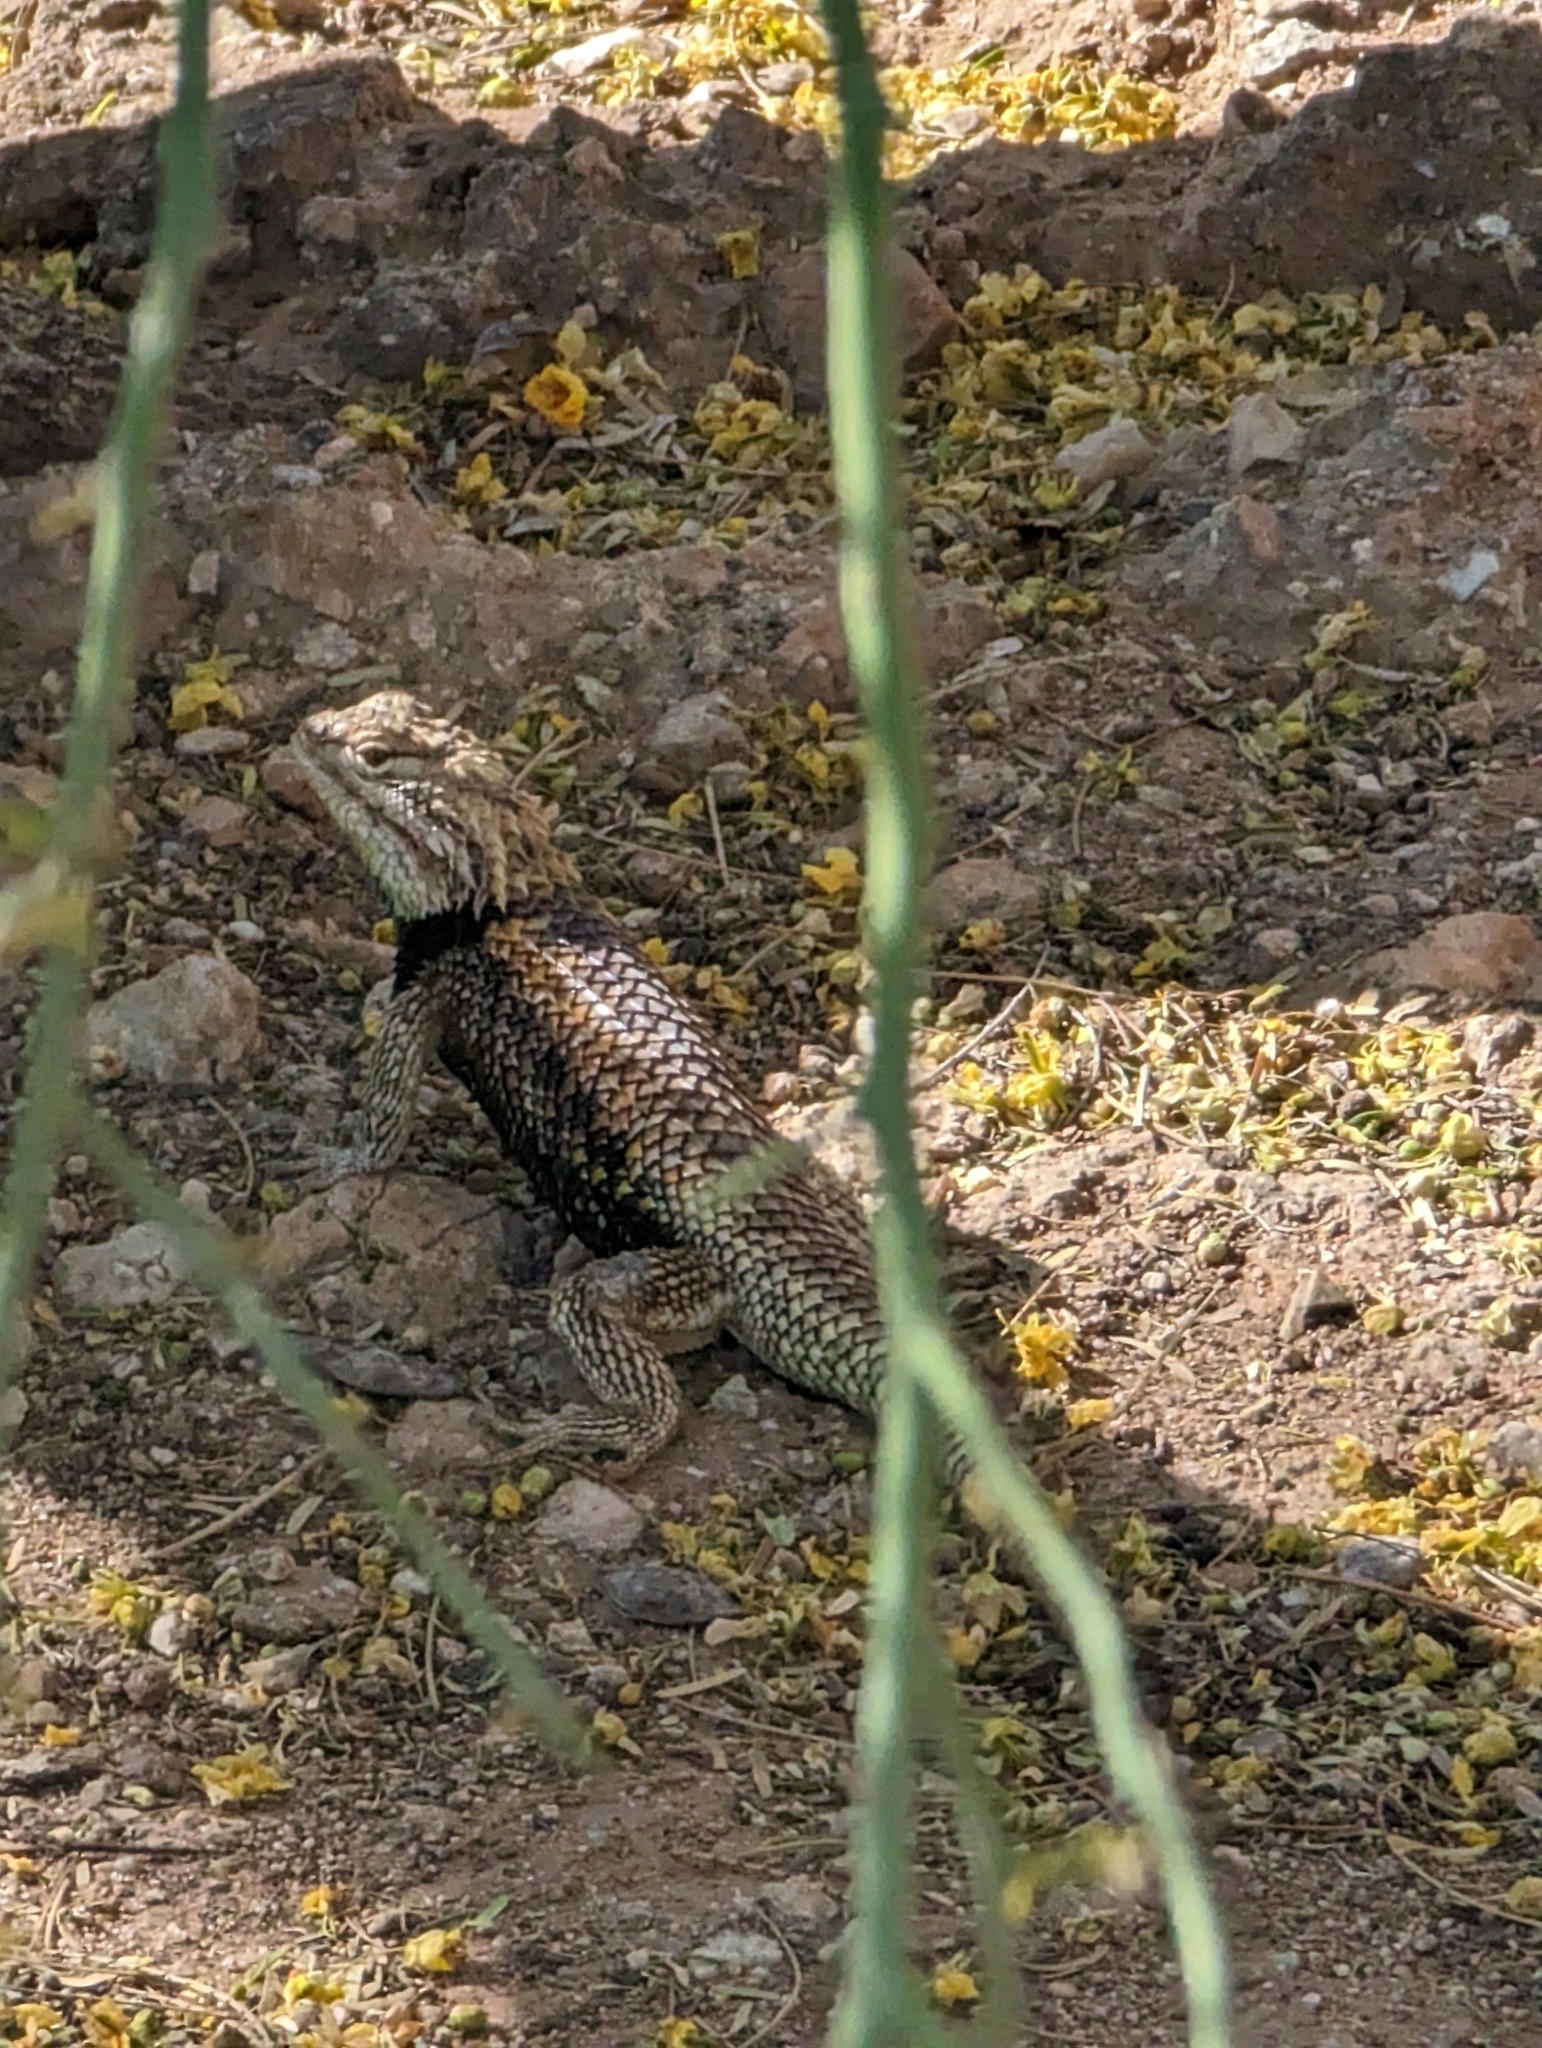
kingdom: Animalia
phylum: Chordata
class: Squamata
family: Phrynosomatidae
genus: Sceloporus
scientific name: Sceloporus magister
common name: Desert spiny lizard
